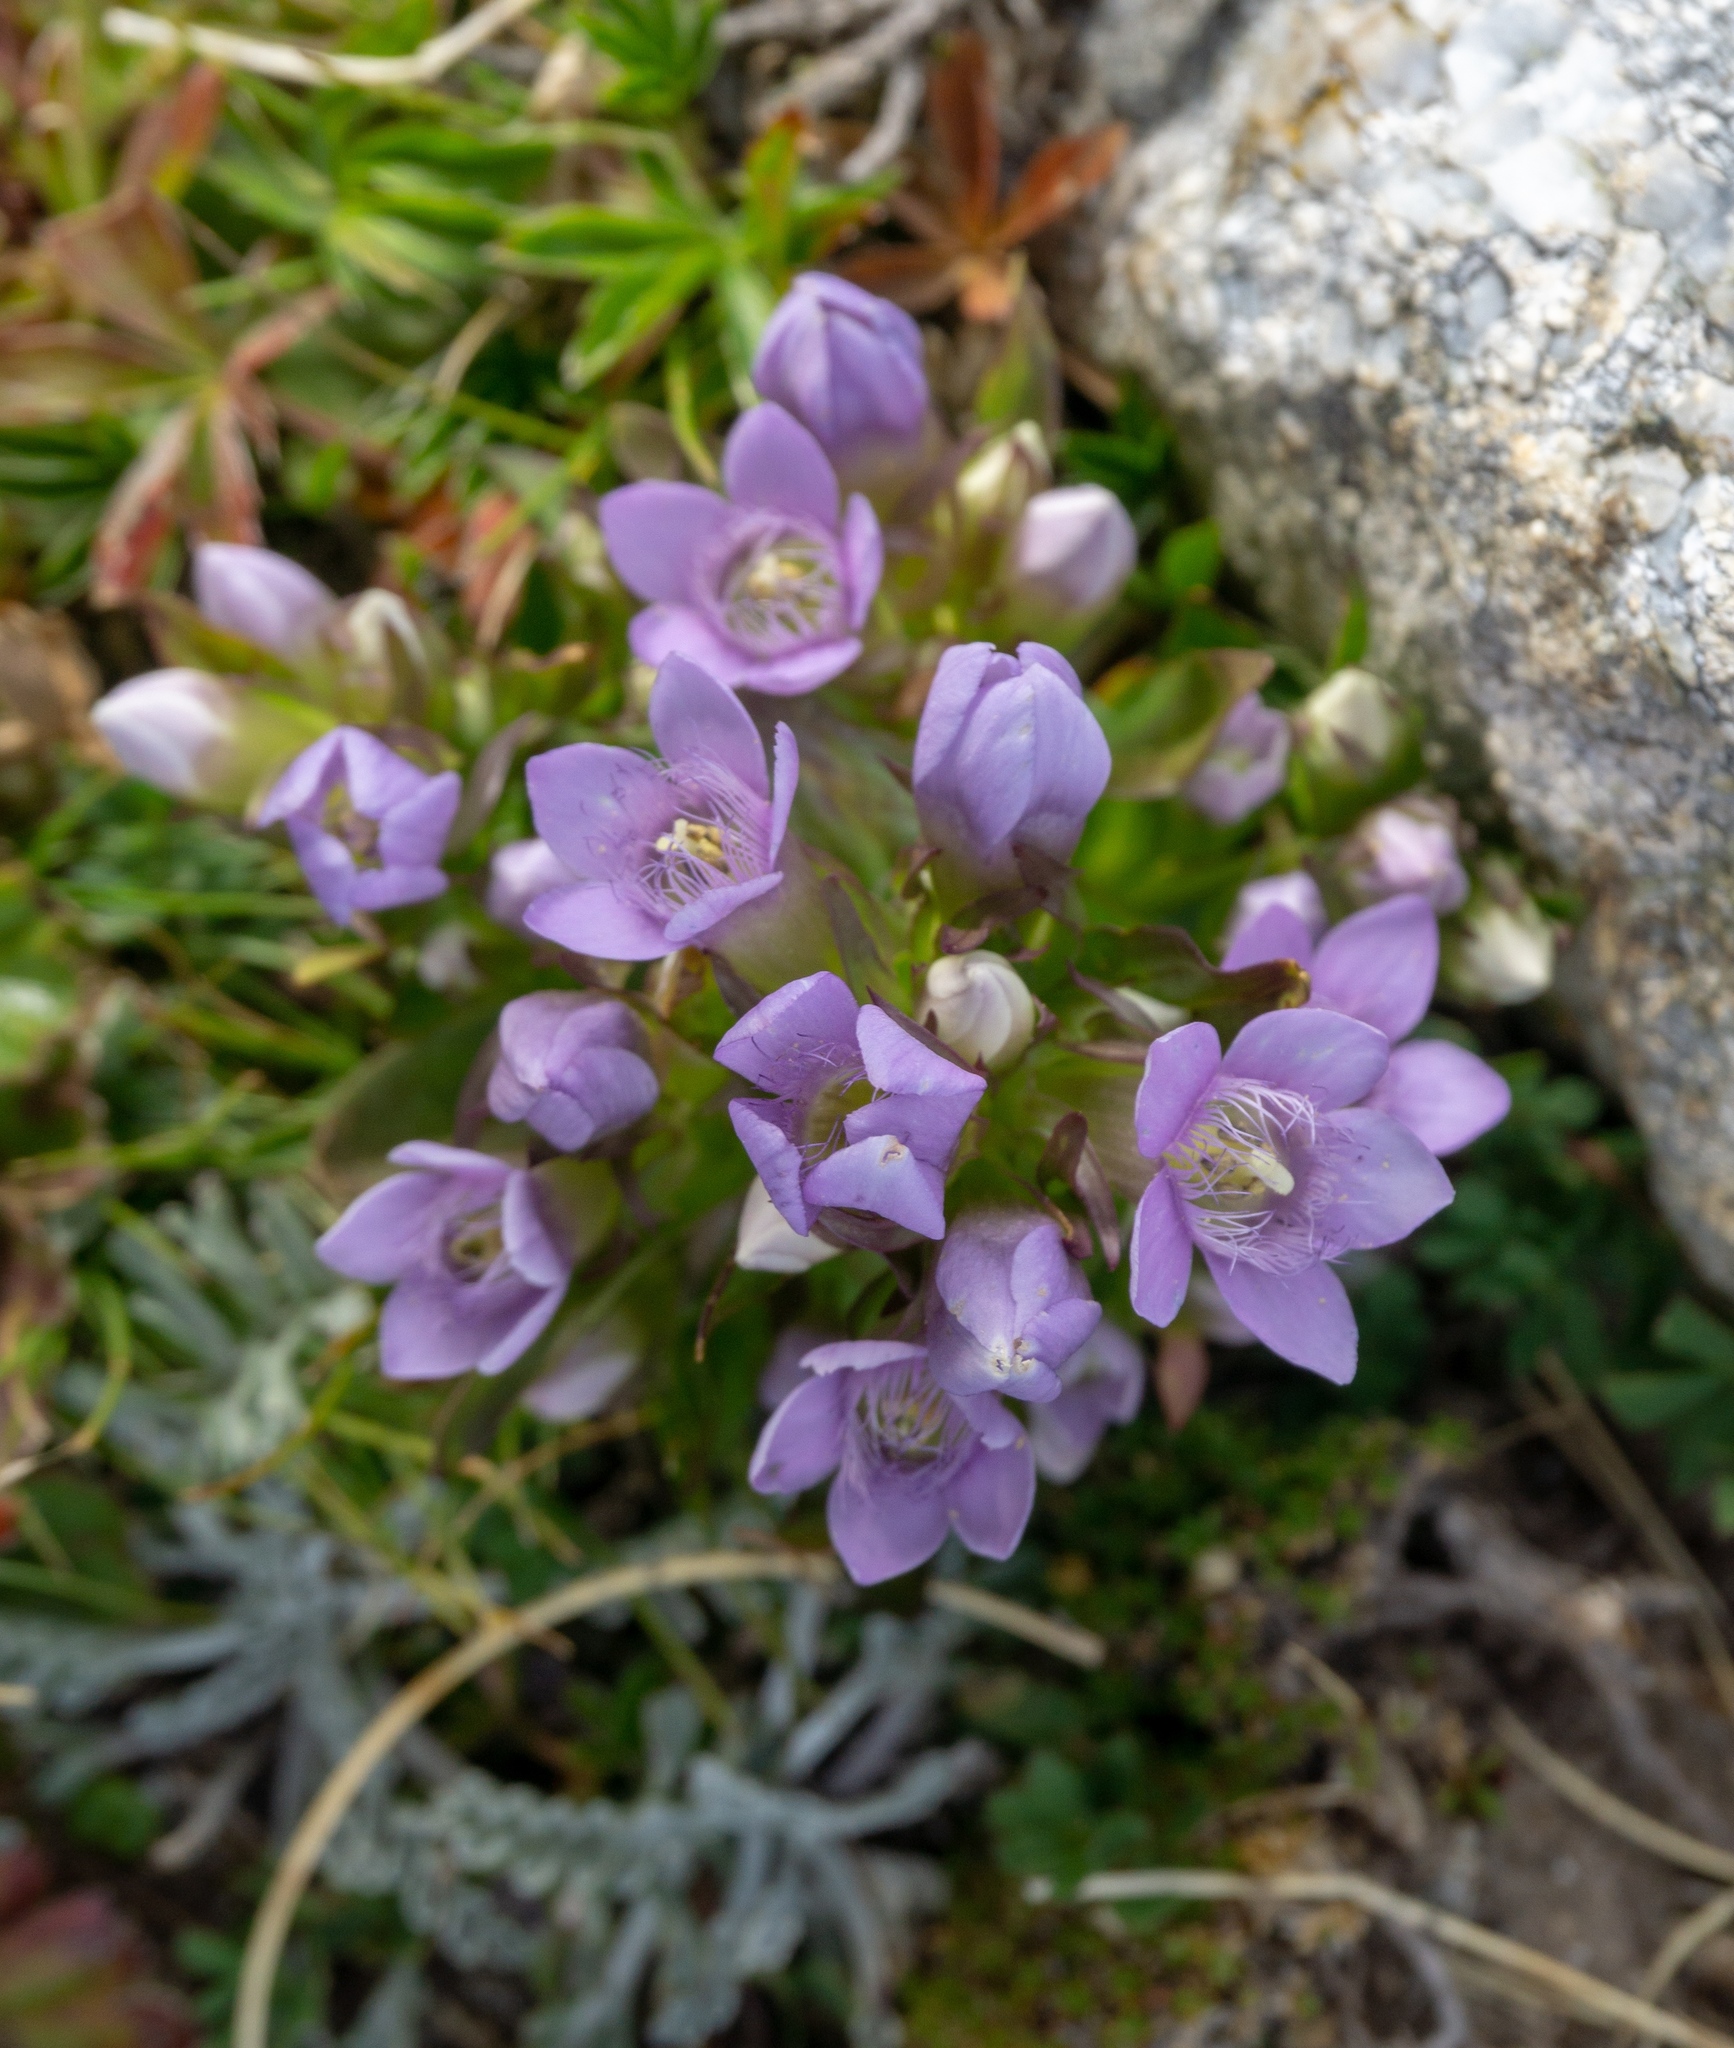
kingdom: Plantae
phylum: Tracheophyta
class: Magnoliopsida
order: Gentianales
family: Gentianaceae
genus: Gentianella
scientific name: Gentianella amarella
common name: Autumn gentian
